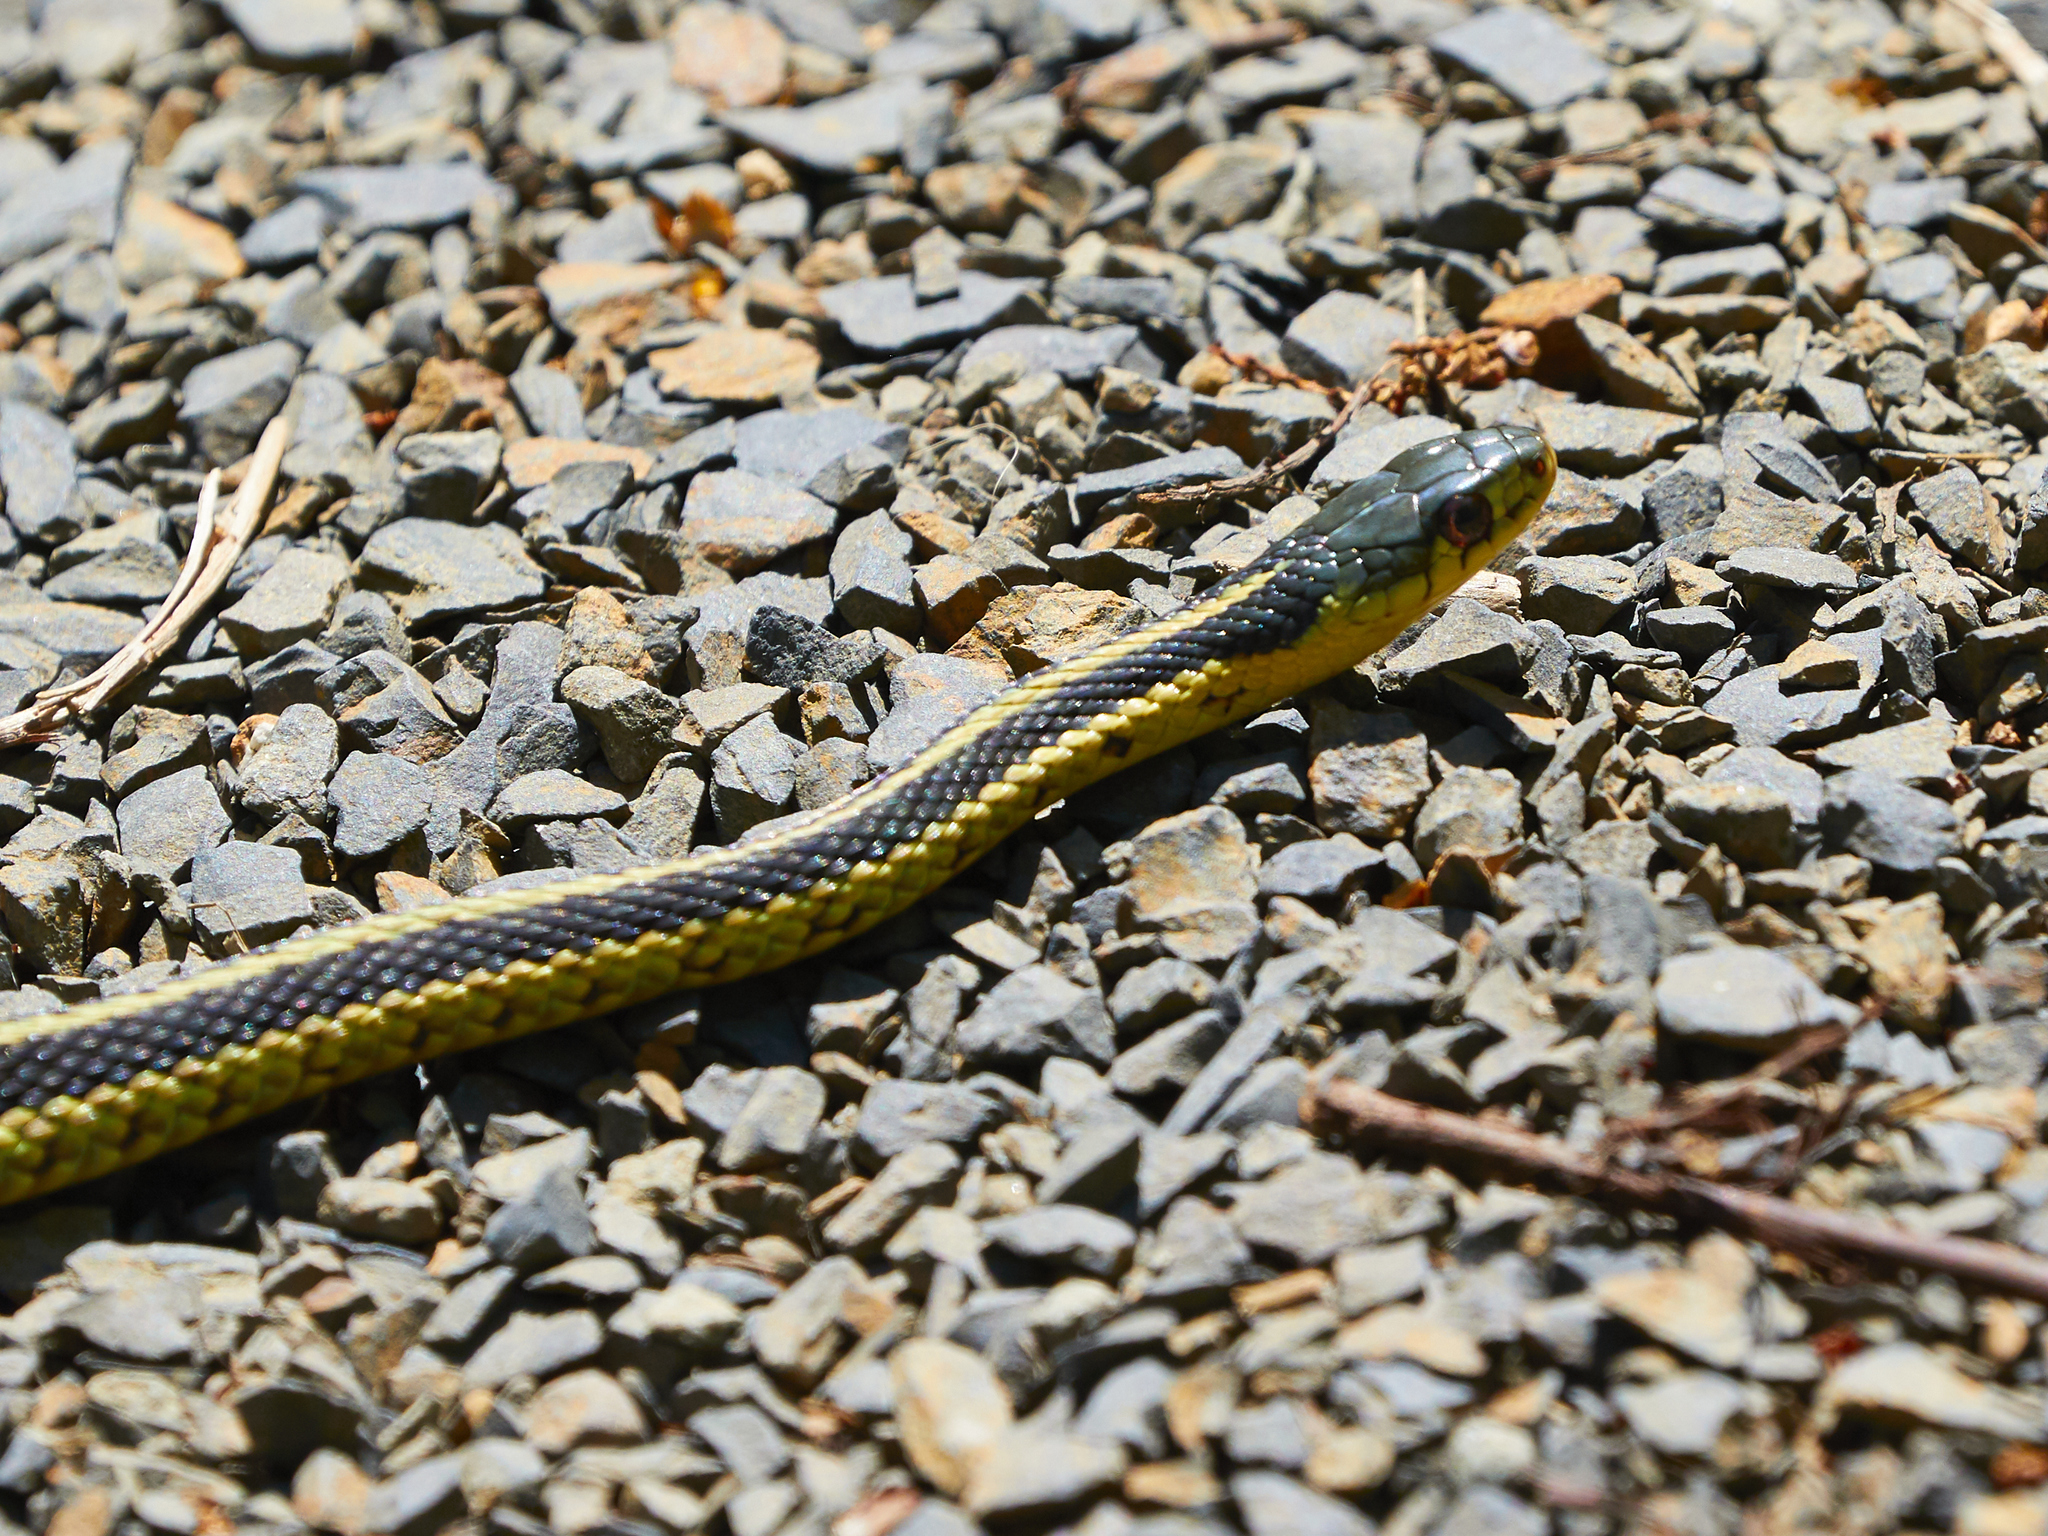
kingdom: Animalia
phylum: Chordata
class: Squamata
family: Colubridae
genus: Thamnophis
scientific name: Thamnophis sirtalis
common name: Common garter snake
